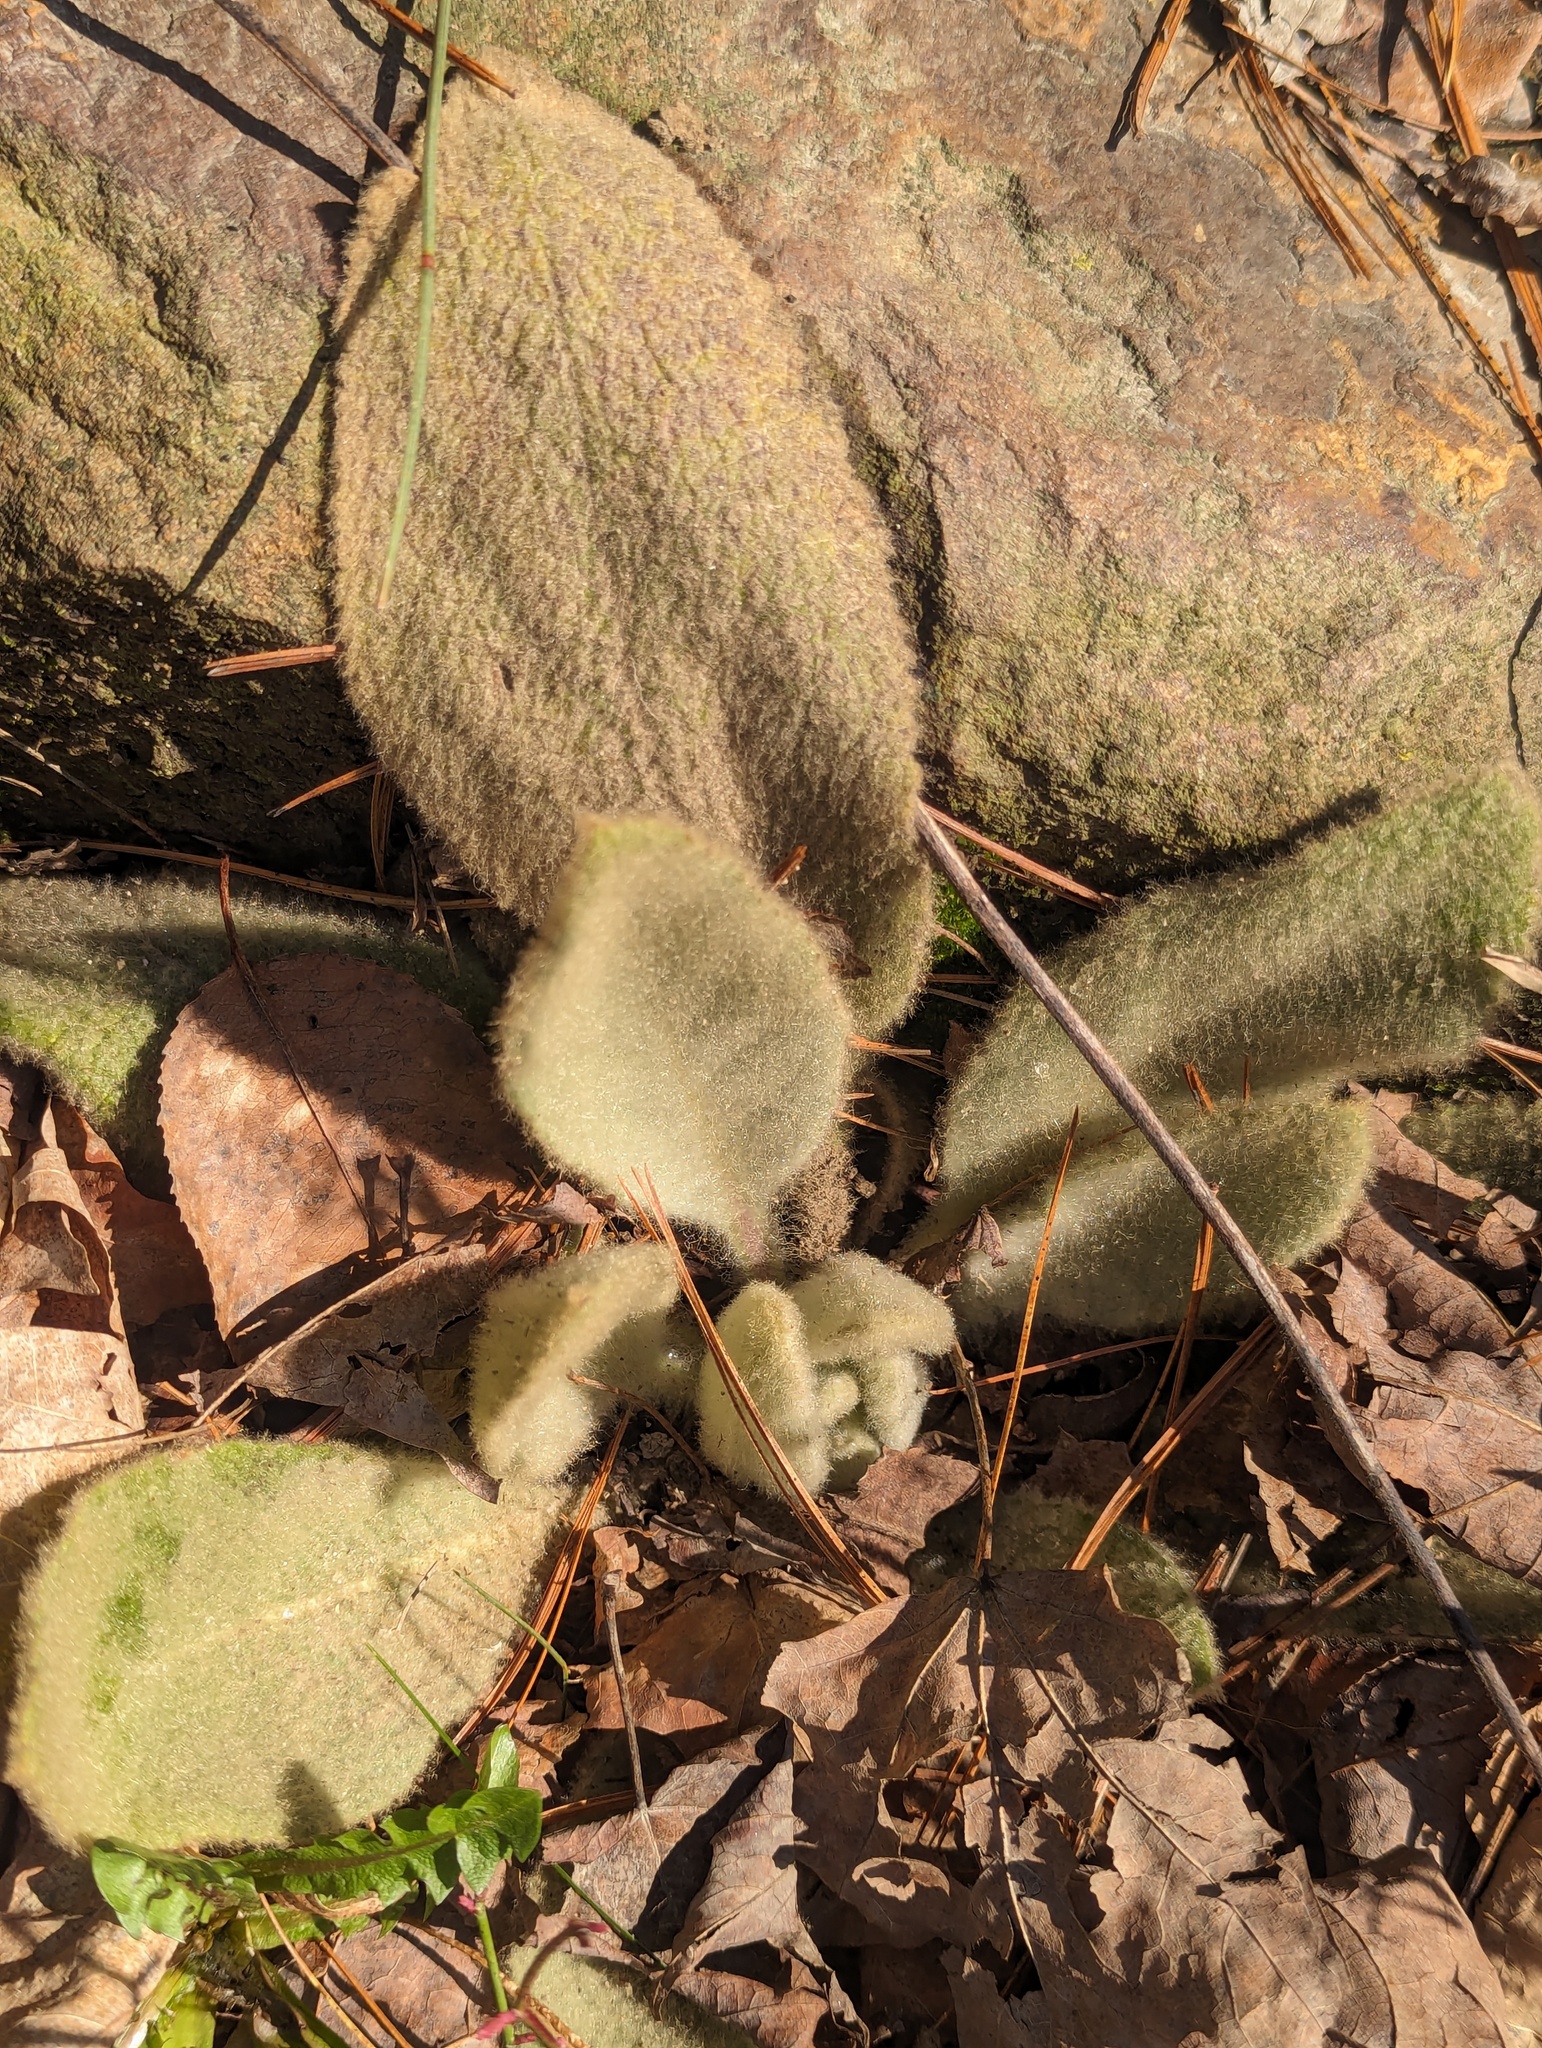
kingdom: Plantae
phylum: Tracheophyta
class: Magnoliopsida
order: Lamiales
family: Scrophulariaceae
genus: Verbascum
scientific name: Verbascum thapsus
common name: Common mullein
